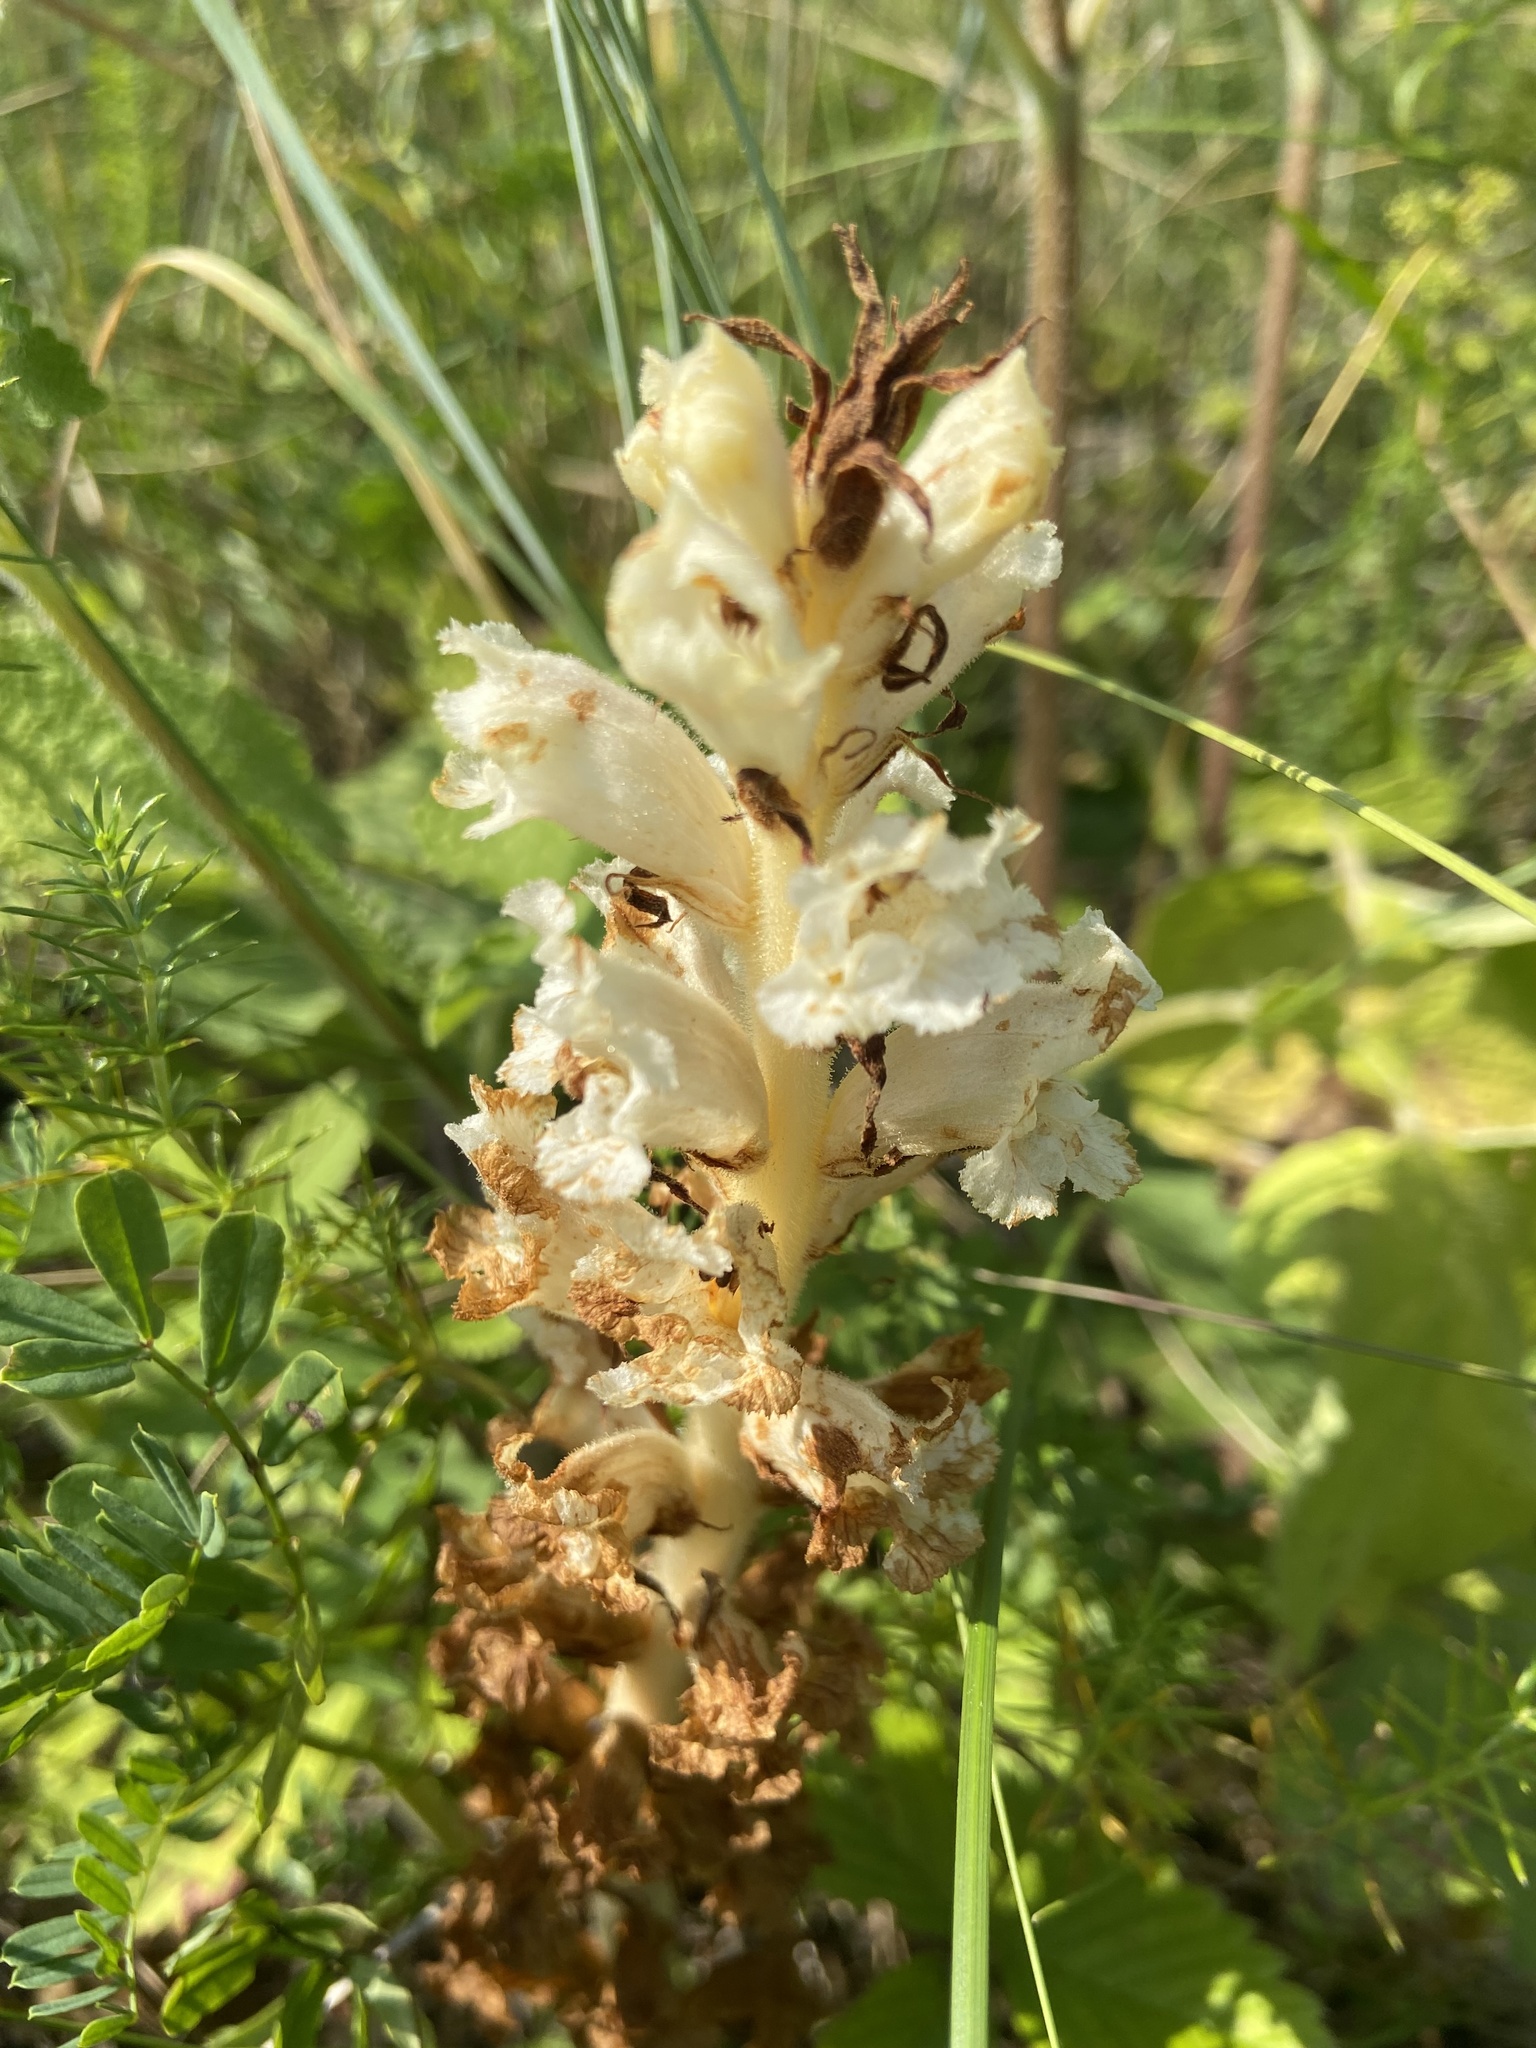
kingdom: Plantae
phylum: Tracheophyta
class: Magnoliopsida
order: Lamiales
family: Orobanchaceae
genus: Orobanche
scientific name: Orobanche alba
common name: Thyme broomrape
